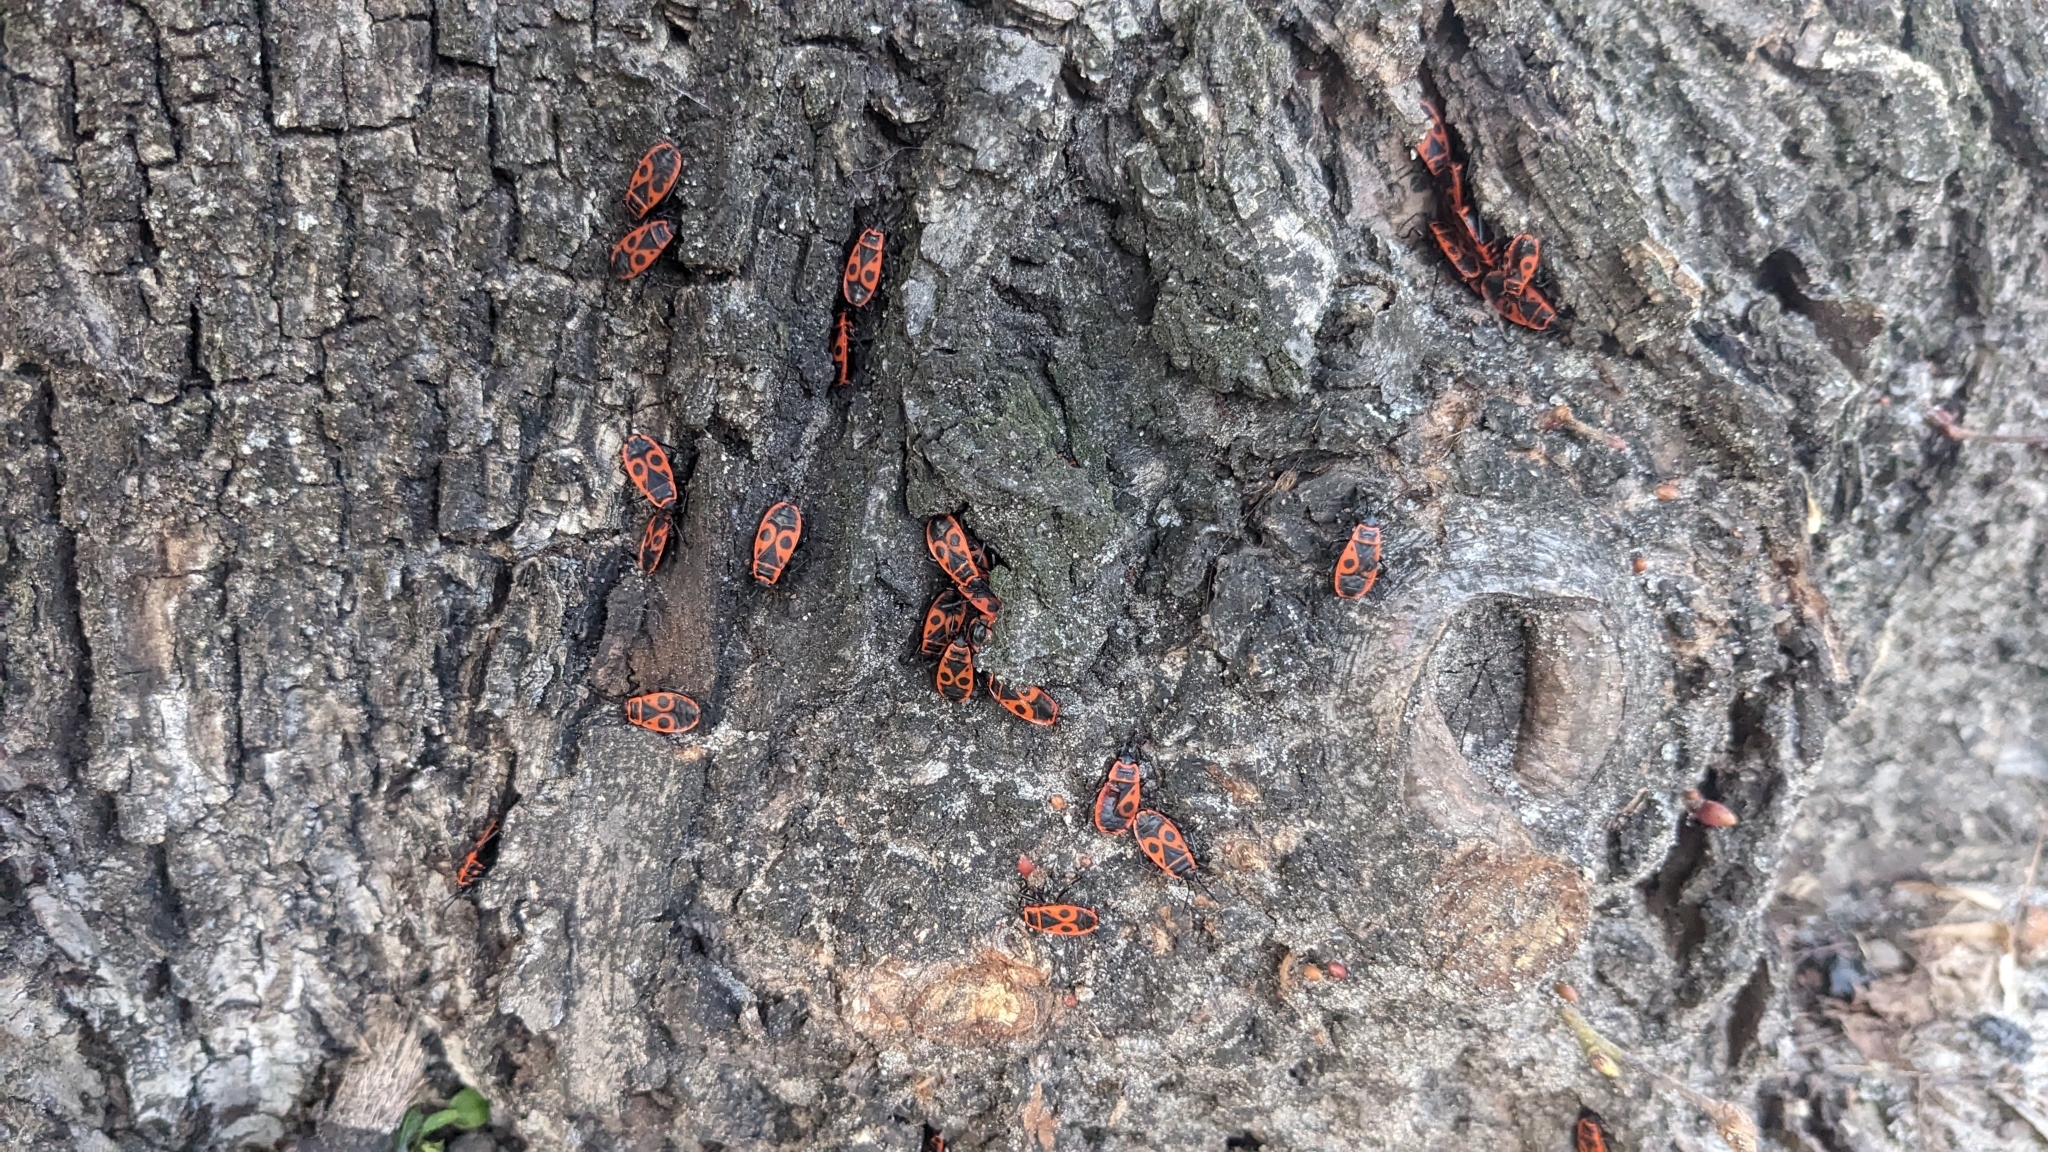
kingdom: Animalia
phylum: Arthropoda
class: Insecta
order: Hemiptera
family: Pyrrhocoridae
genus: Pyrrhocoris
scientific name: Pyrrhocoris apterus
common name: Firebug
